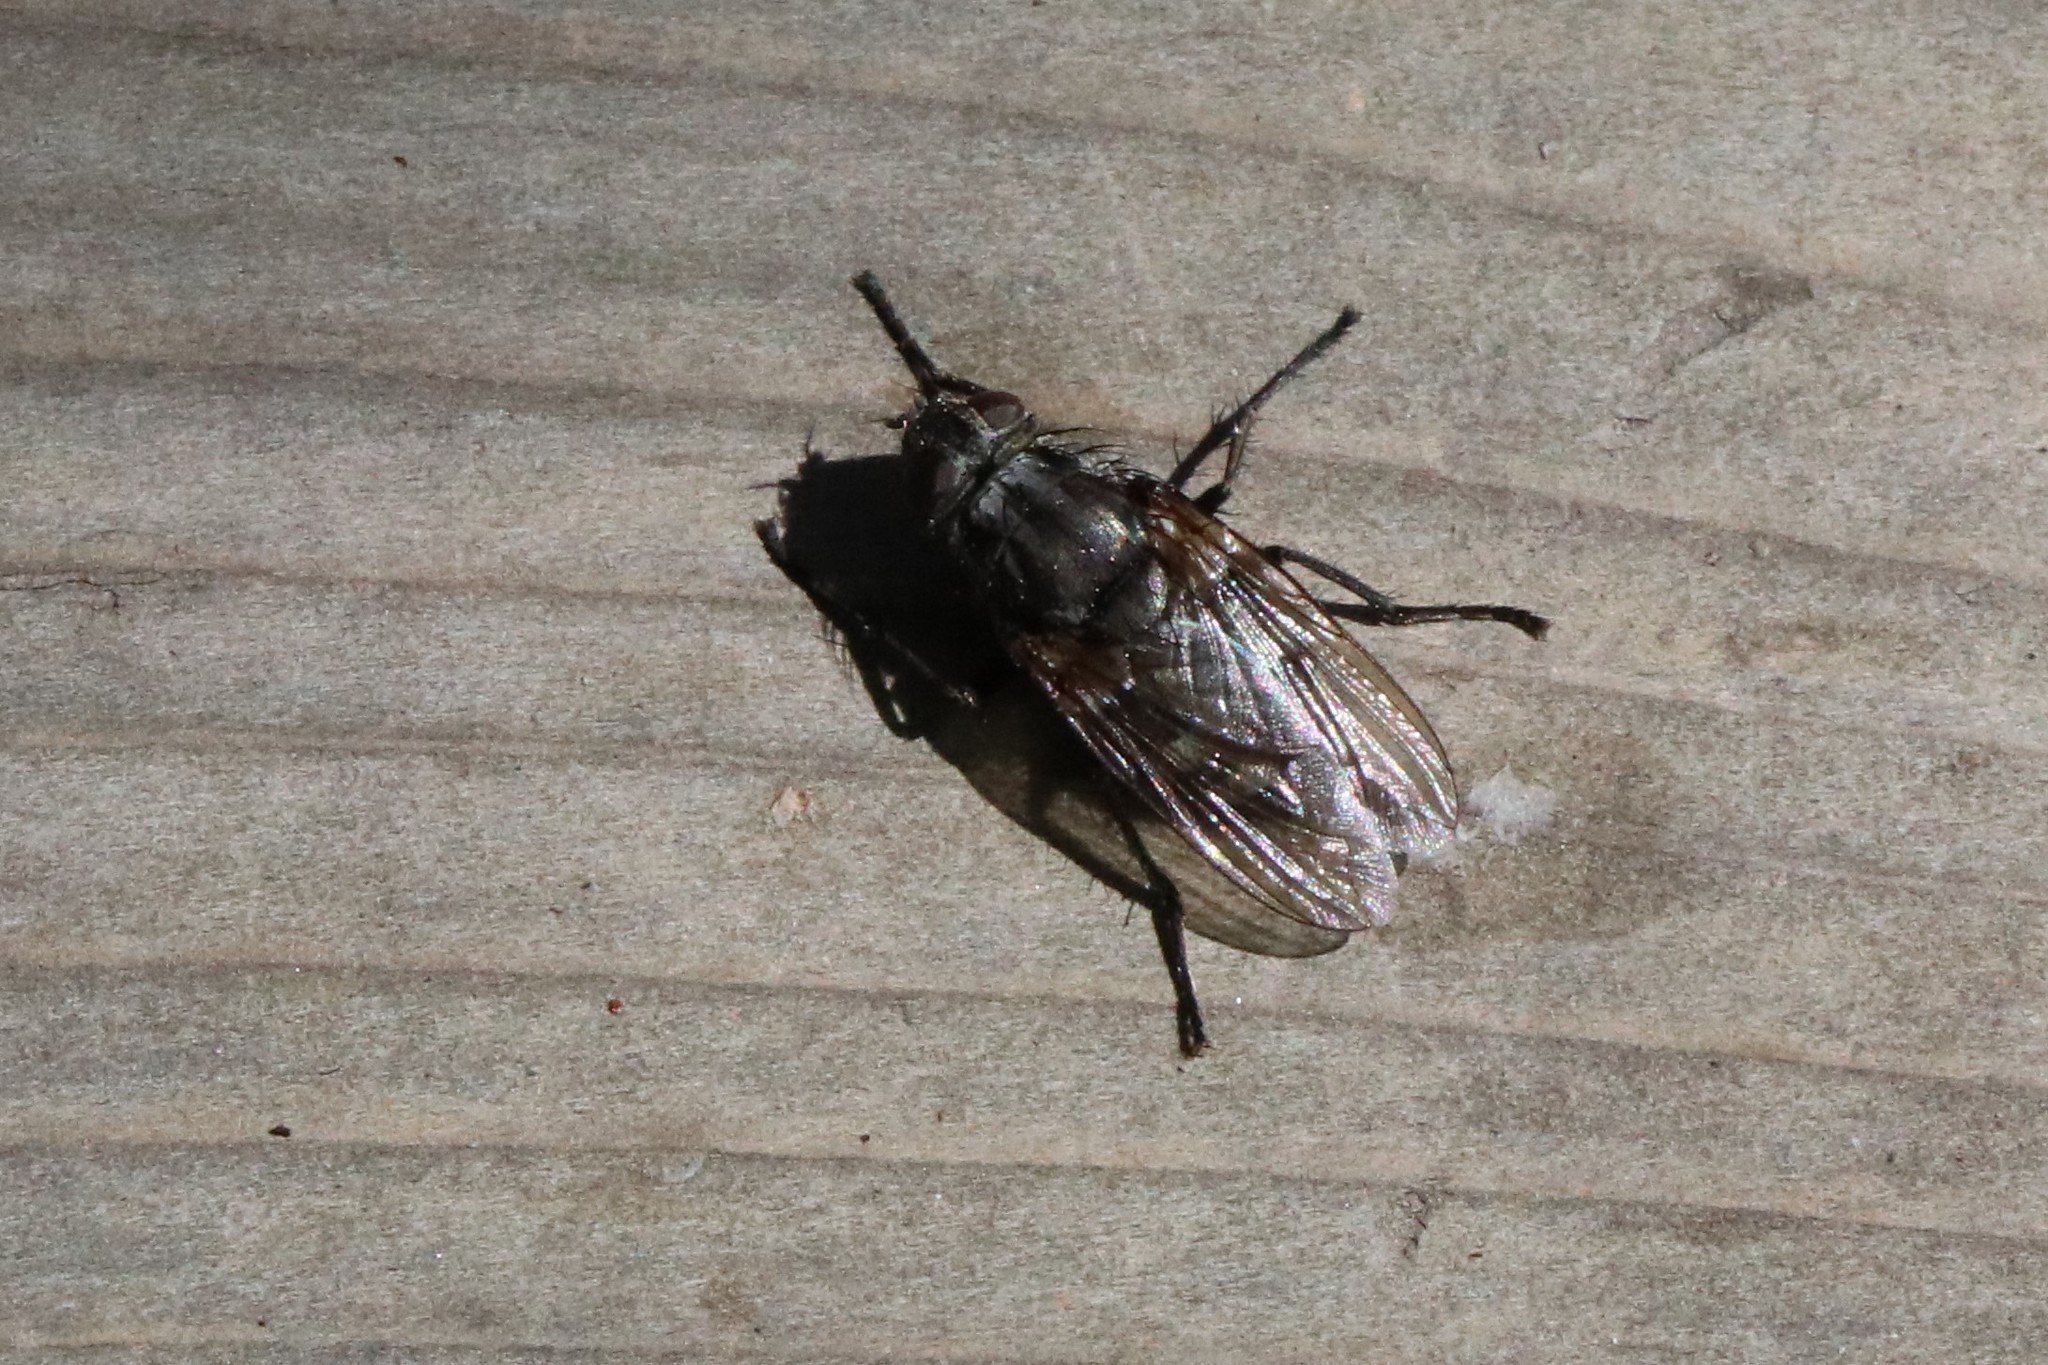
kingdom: Animalia
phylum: Arthropoda
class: Insecta
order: Diptera
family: Polleniidae
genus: Pollenia
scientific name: Pollenia vagabunda
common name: Vagabund cluster fly
